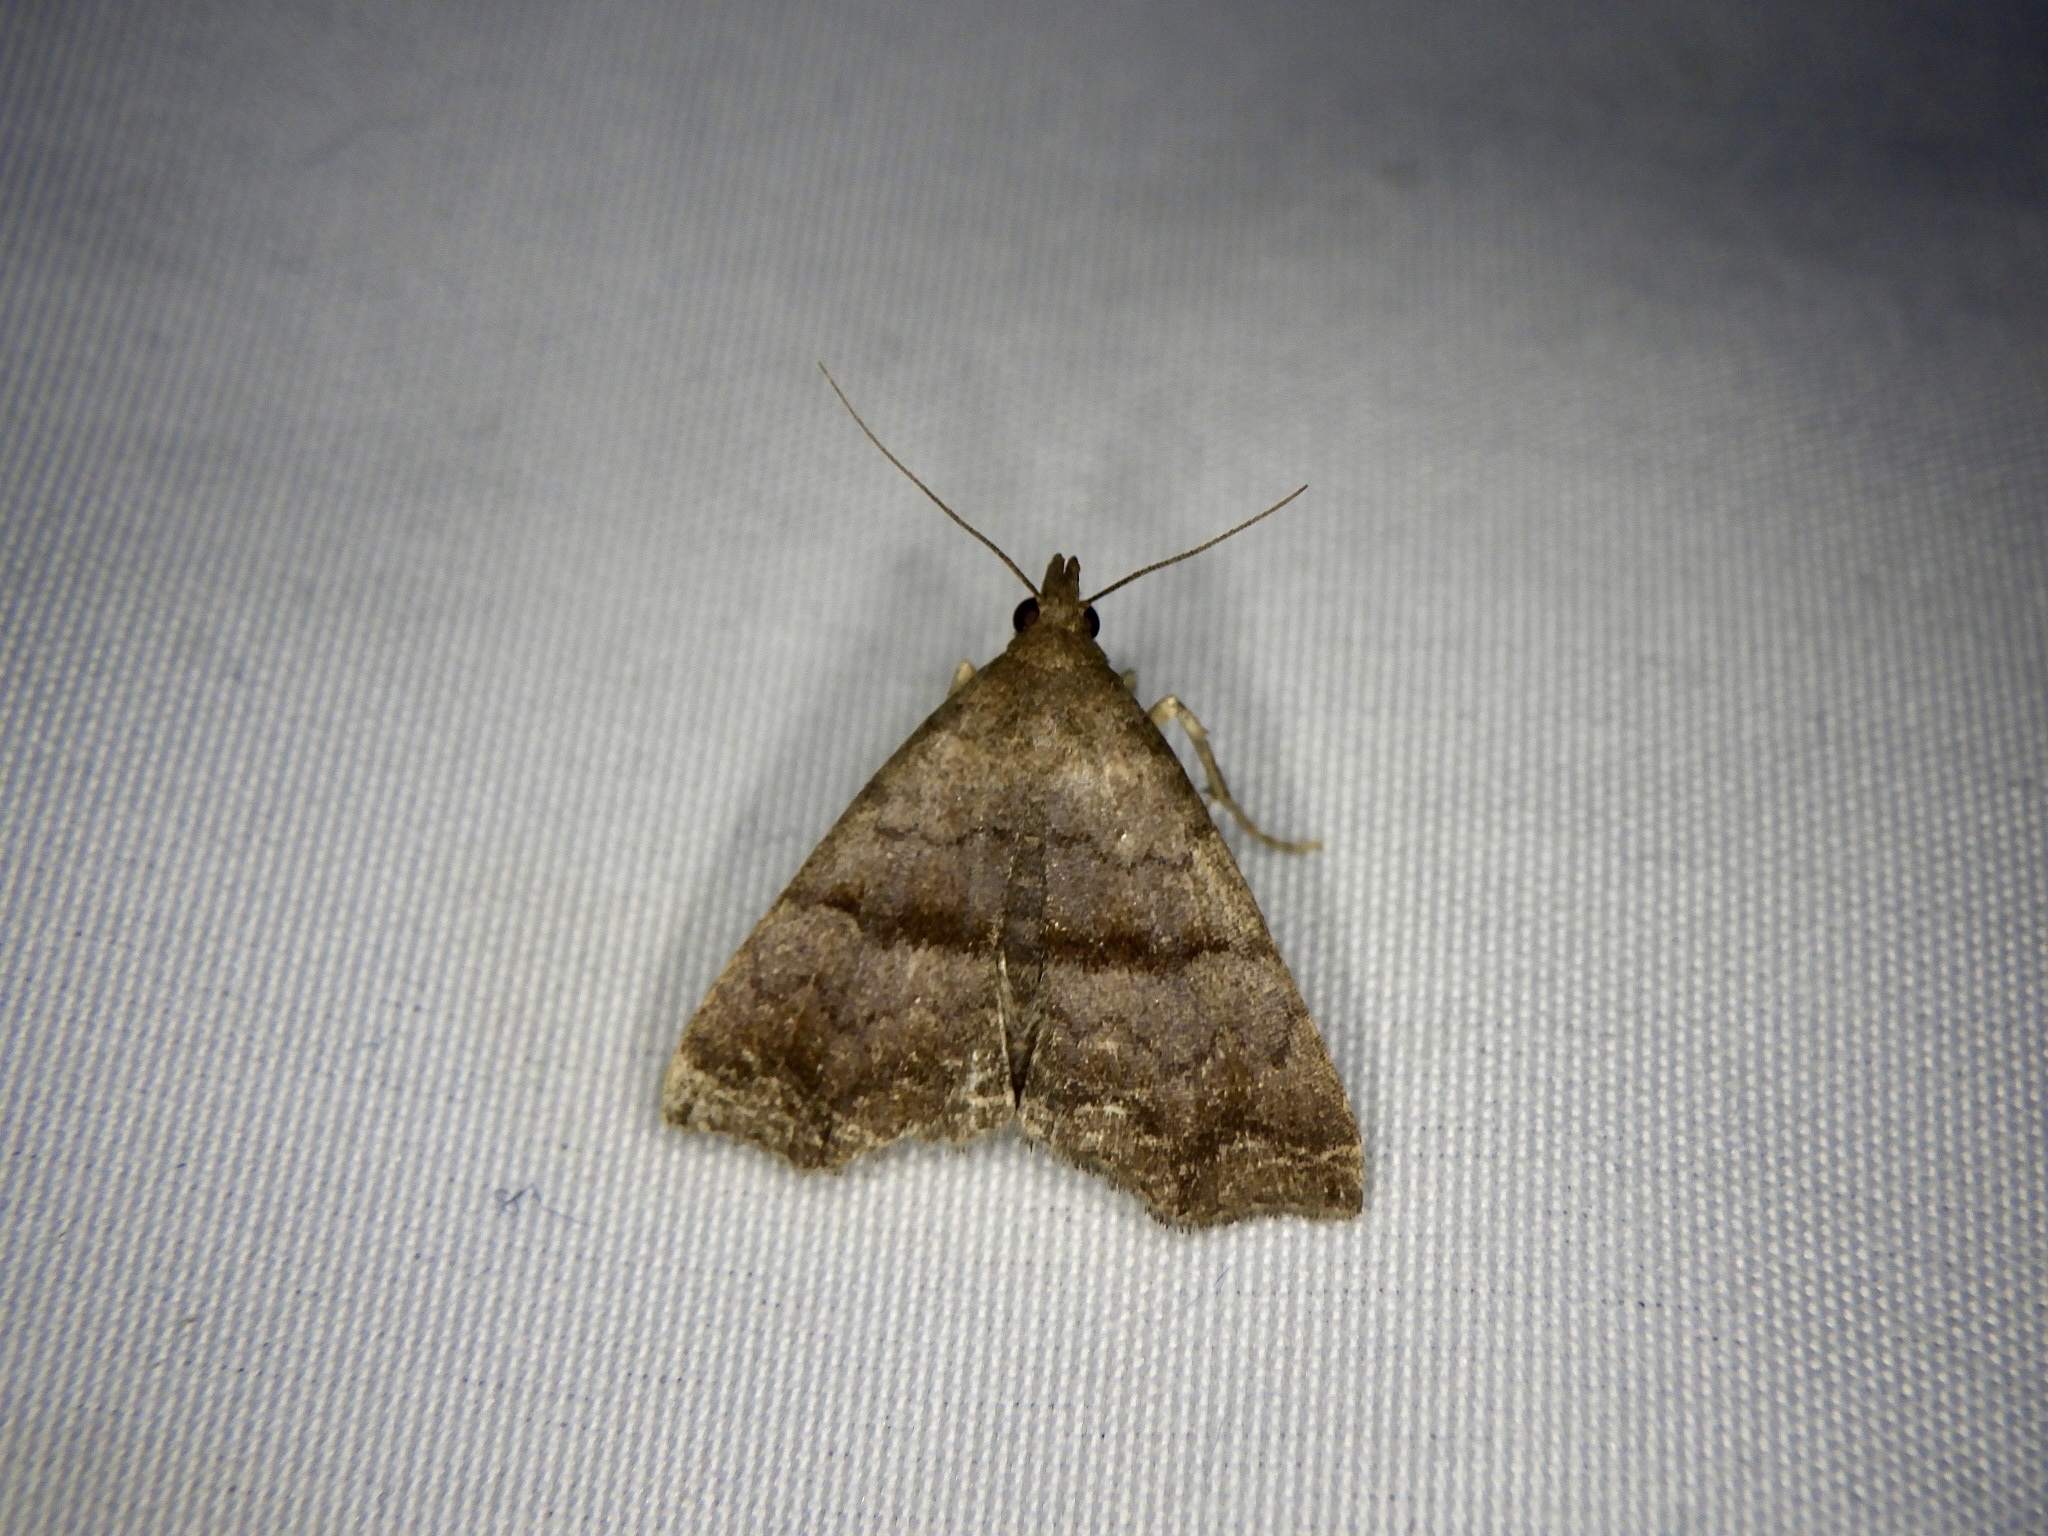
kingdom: Animalia
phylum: Arthropoda
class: Insecta
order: Lepidoptera
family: Erebidae
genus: Polypogon
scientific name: Polypogon Hipoepa fractalis
